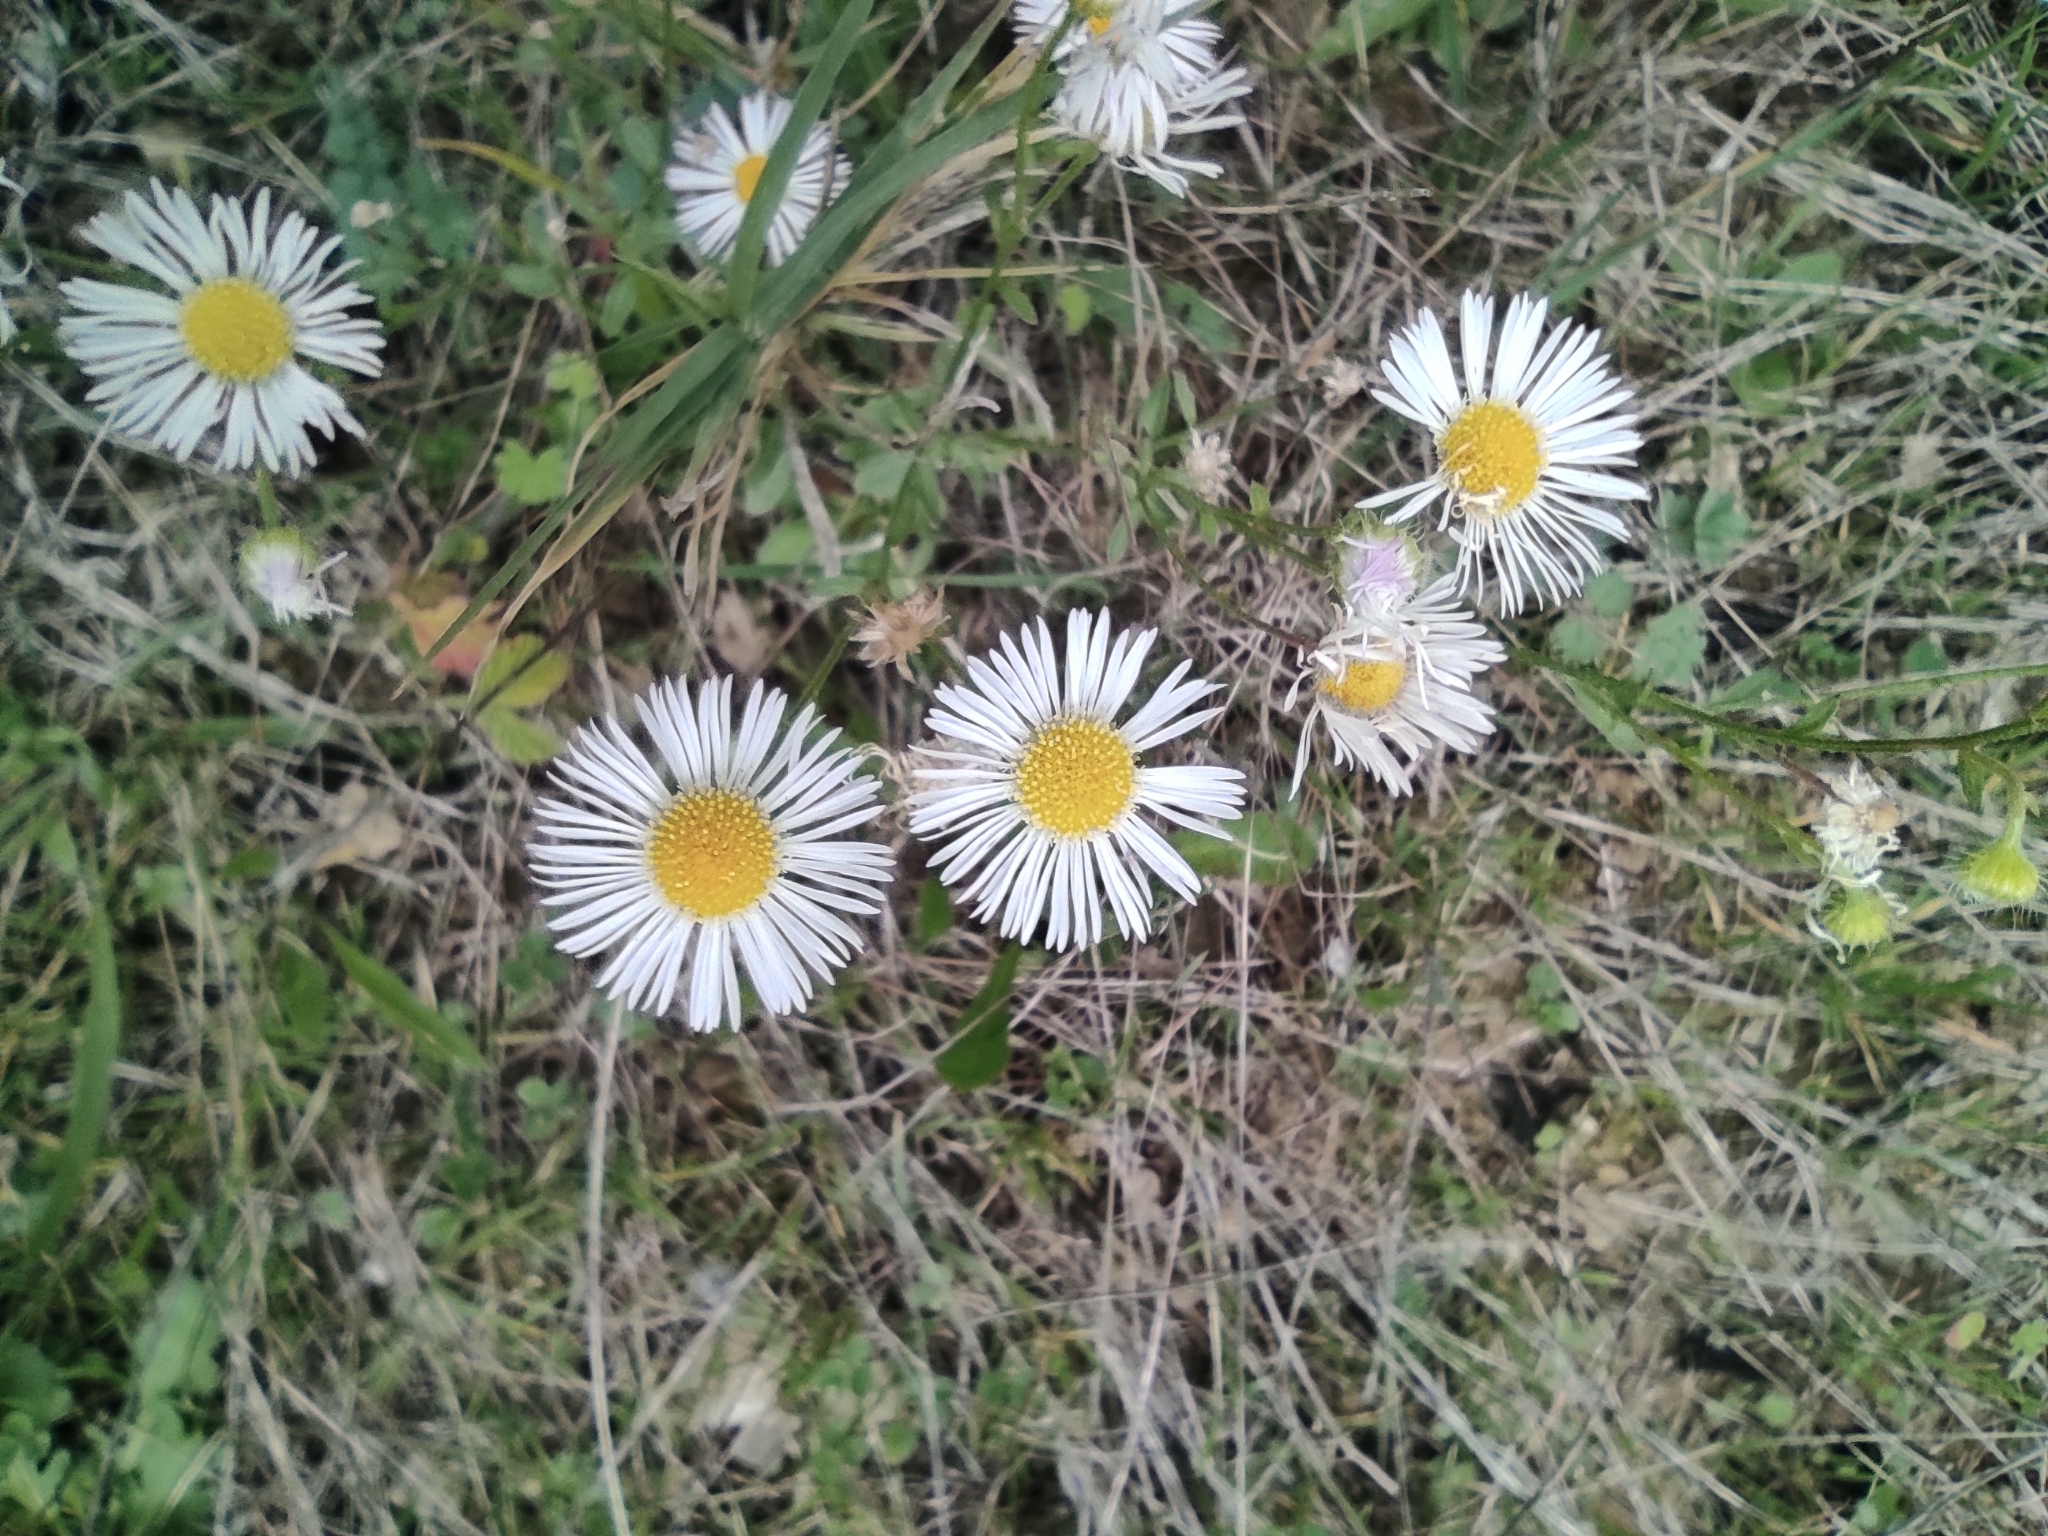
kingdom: Plantae
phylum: Tracheophyta
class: Magnoliopsida
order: Asterales
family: Asteraceae
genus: Erigeron
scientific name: Erigeron annuus
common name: Tall fleabane
